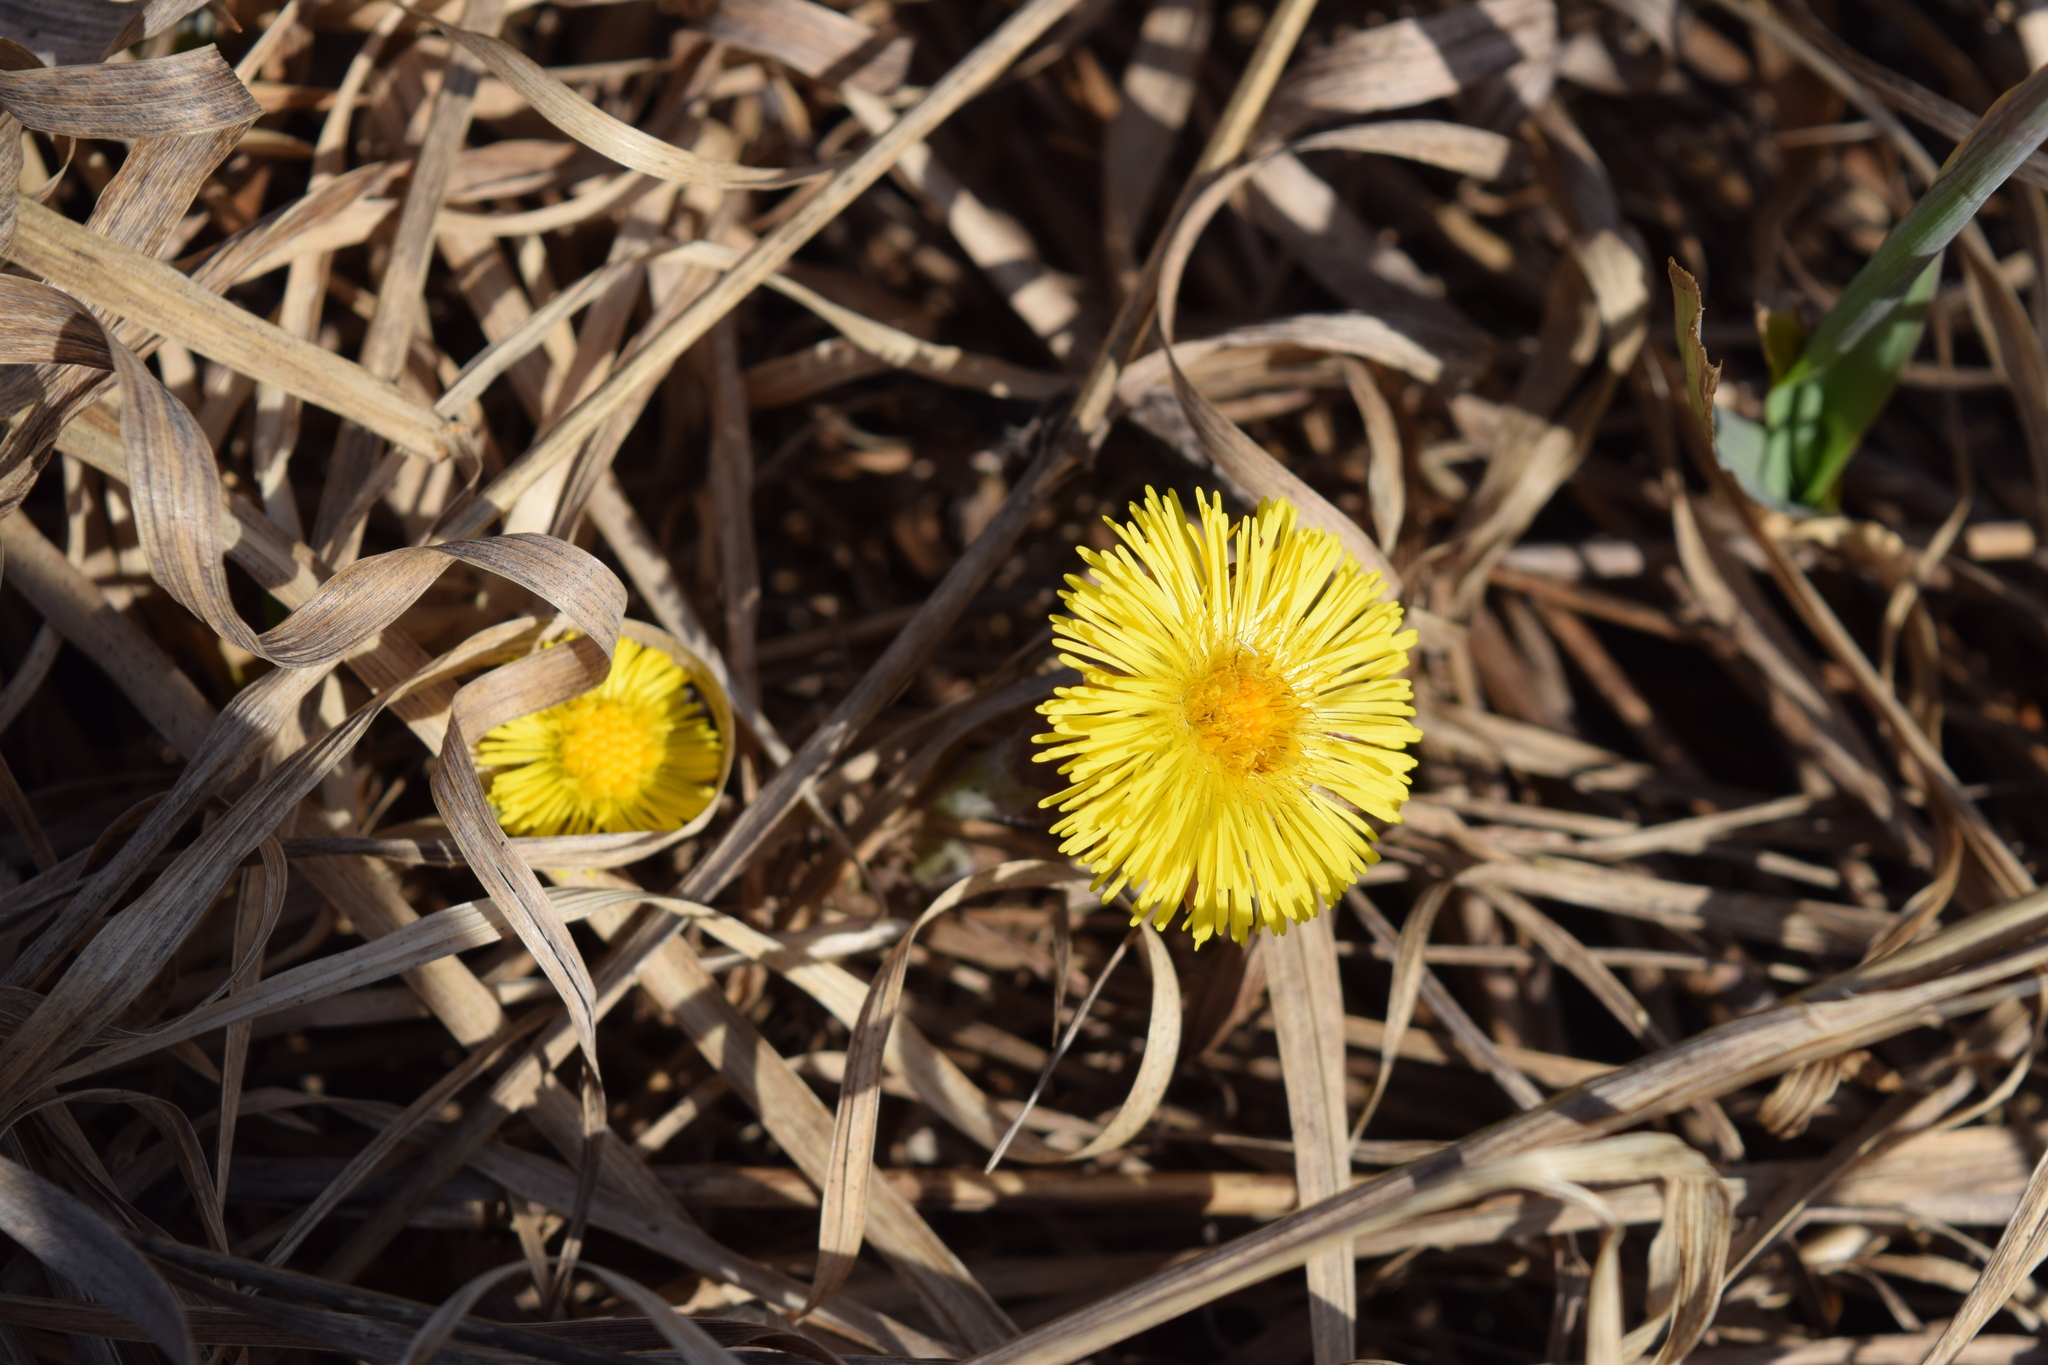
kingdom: Plantae
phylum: Tracheophyta
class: Magnoliopsida
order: Asterales
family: Asteraceae
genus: Tussilago
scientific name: Tussilago farfara
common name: Coltsfoot
